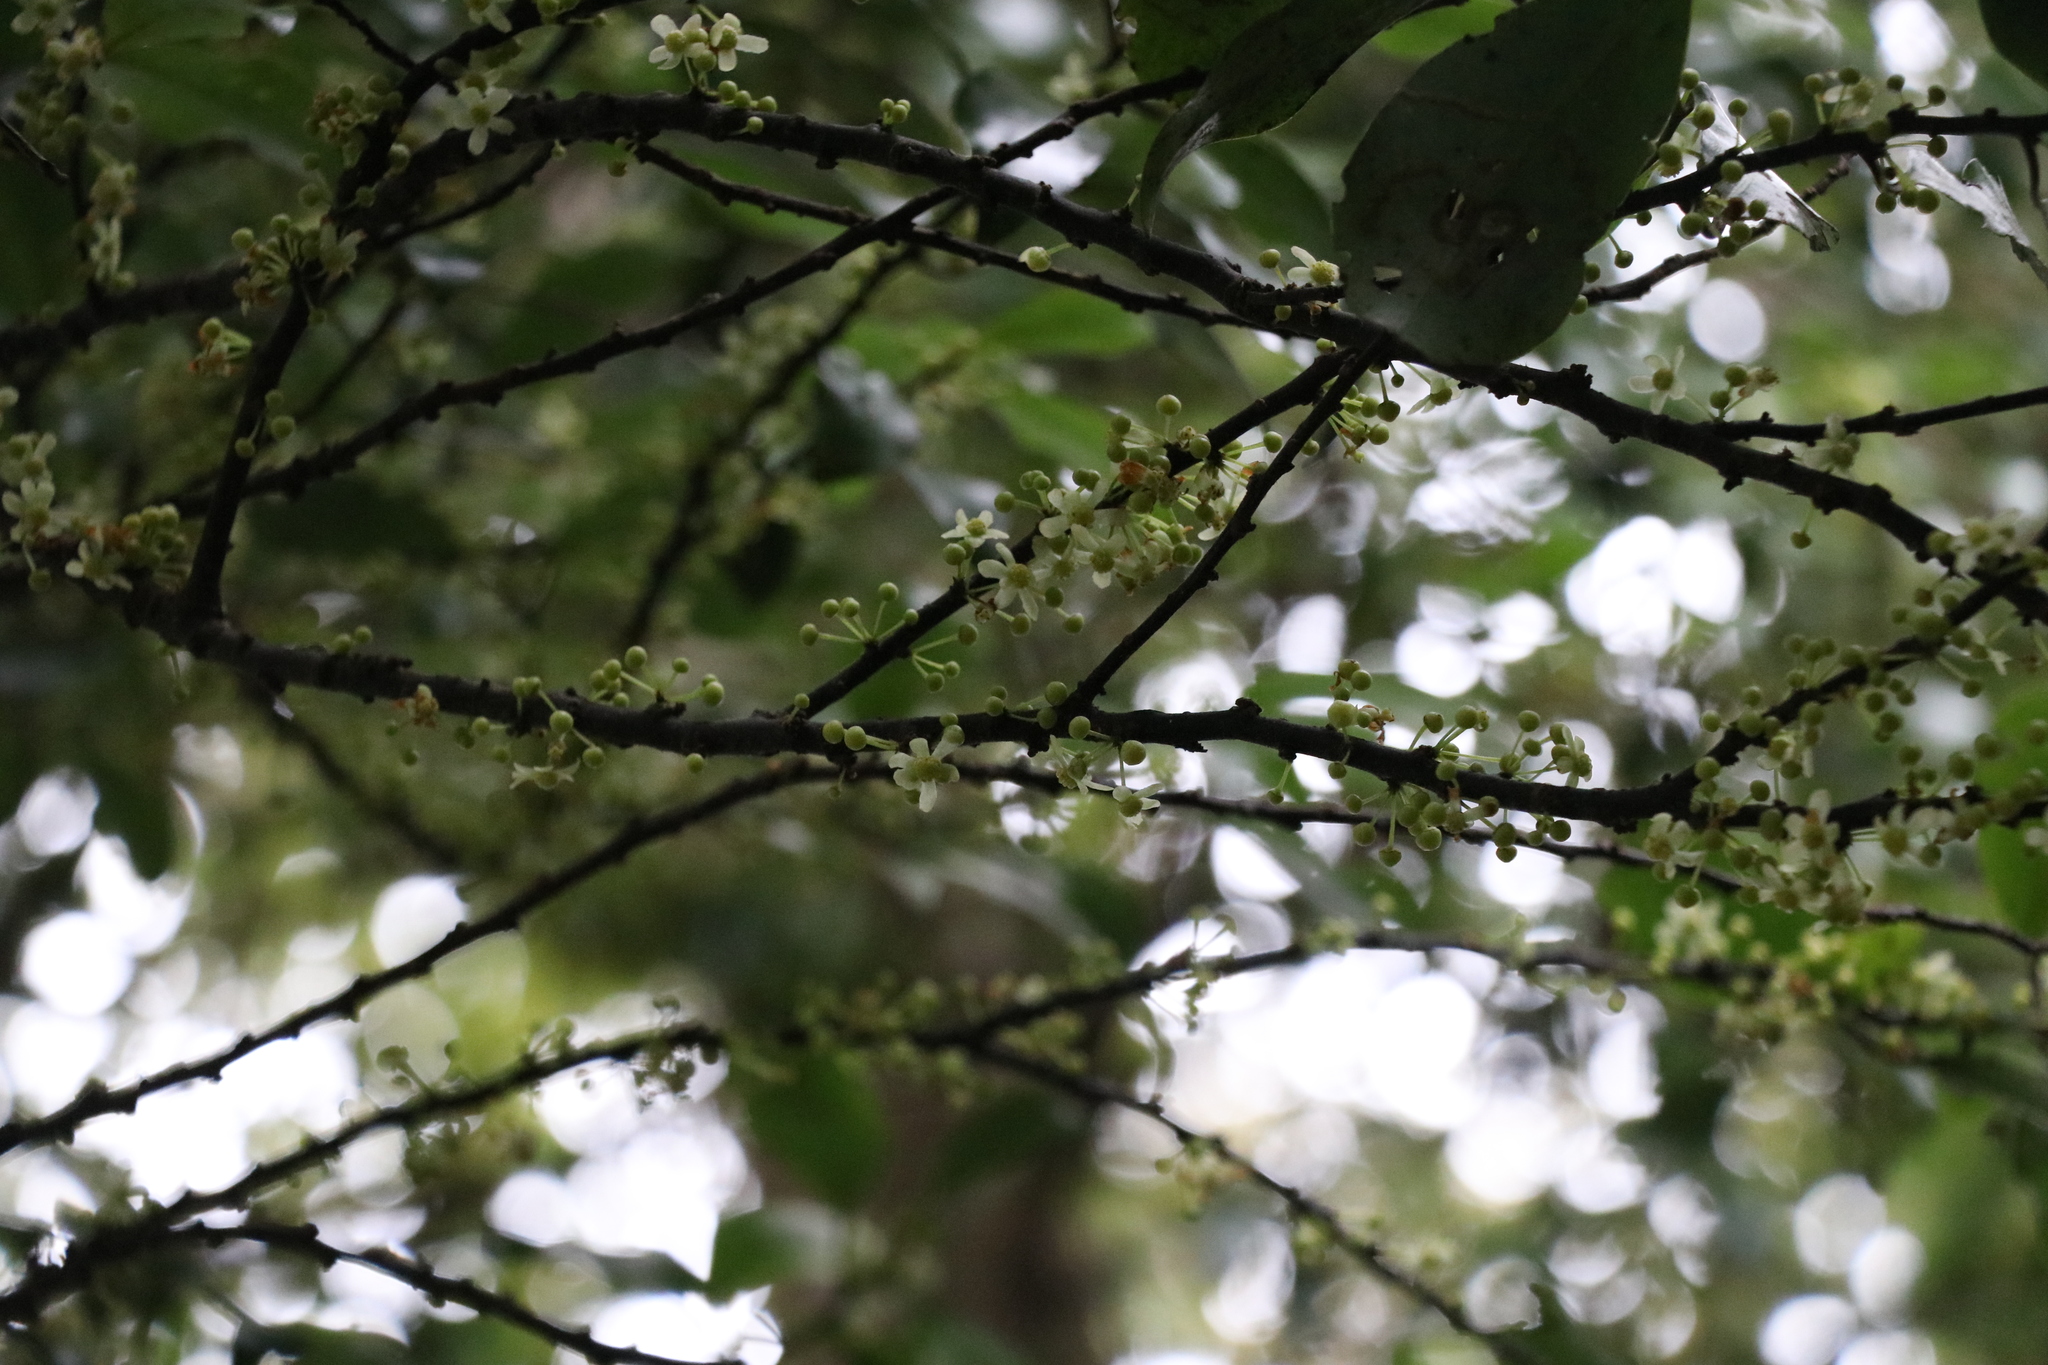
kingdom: Plantae
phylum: Tracheophyta
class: Magnoliopsida
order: Laurales
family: Monimiaceae
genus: Hedycarya
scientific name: Hedycarya arborea
